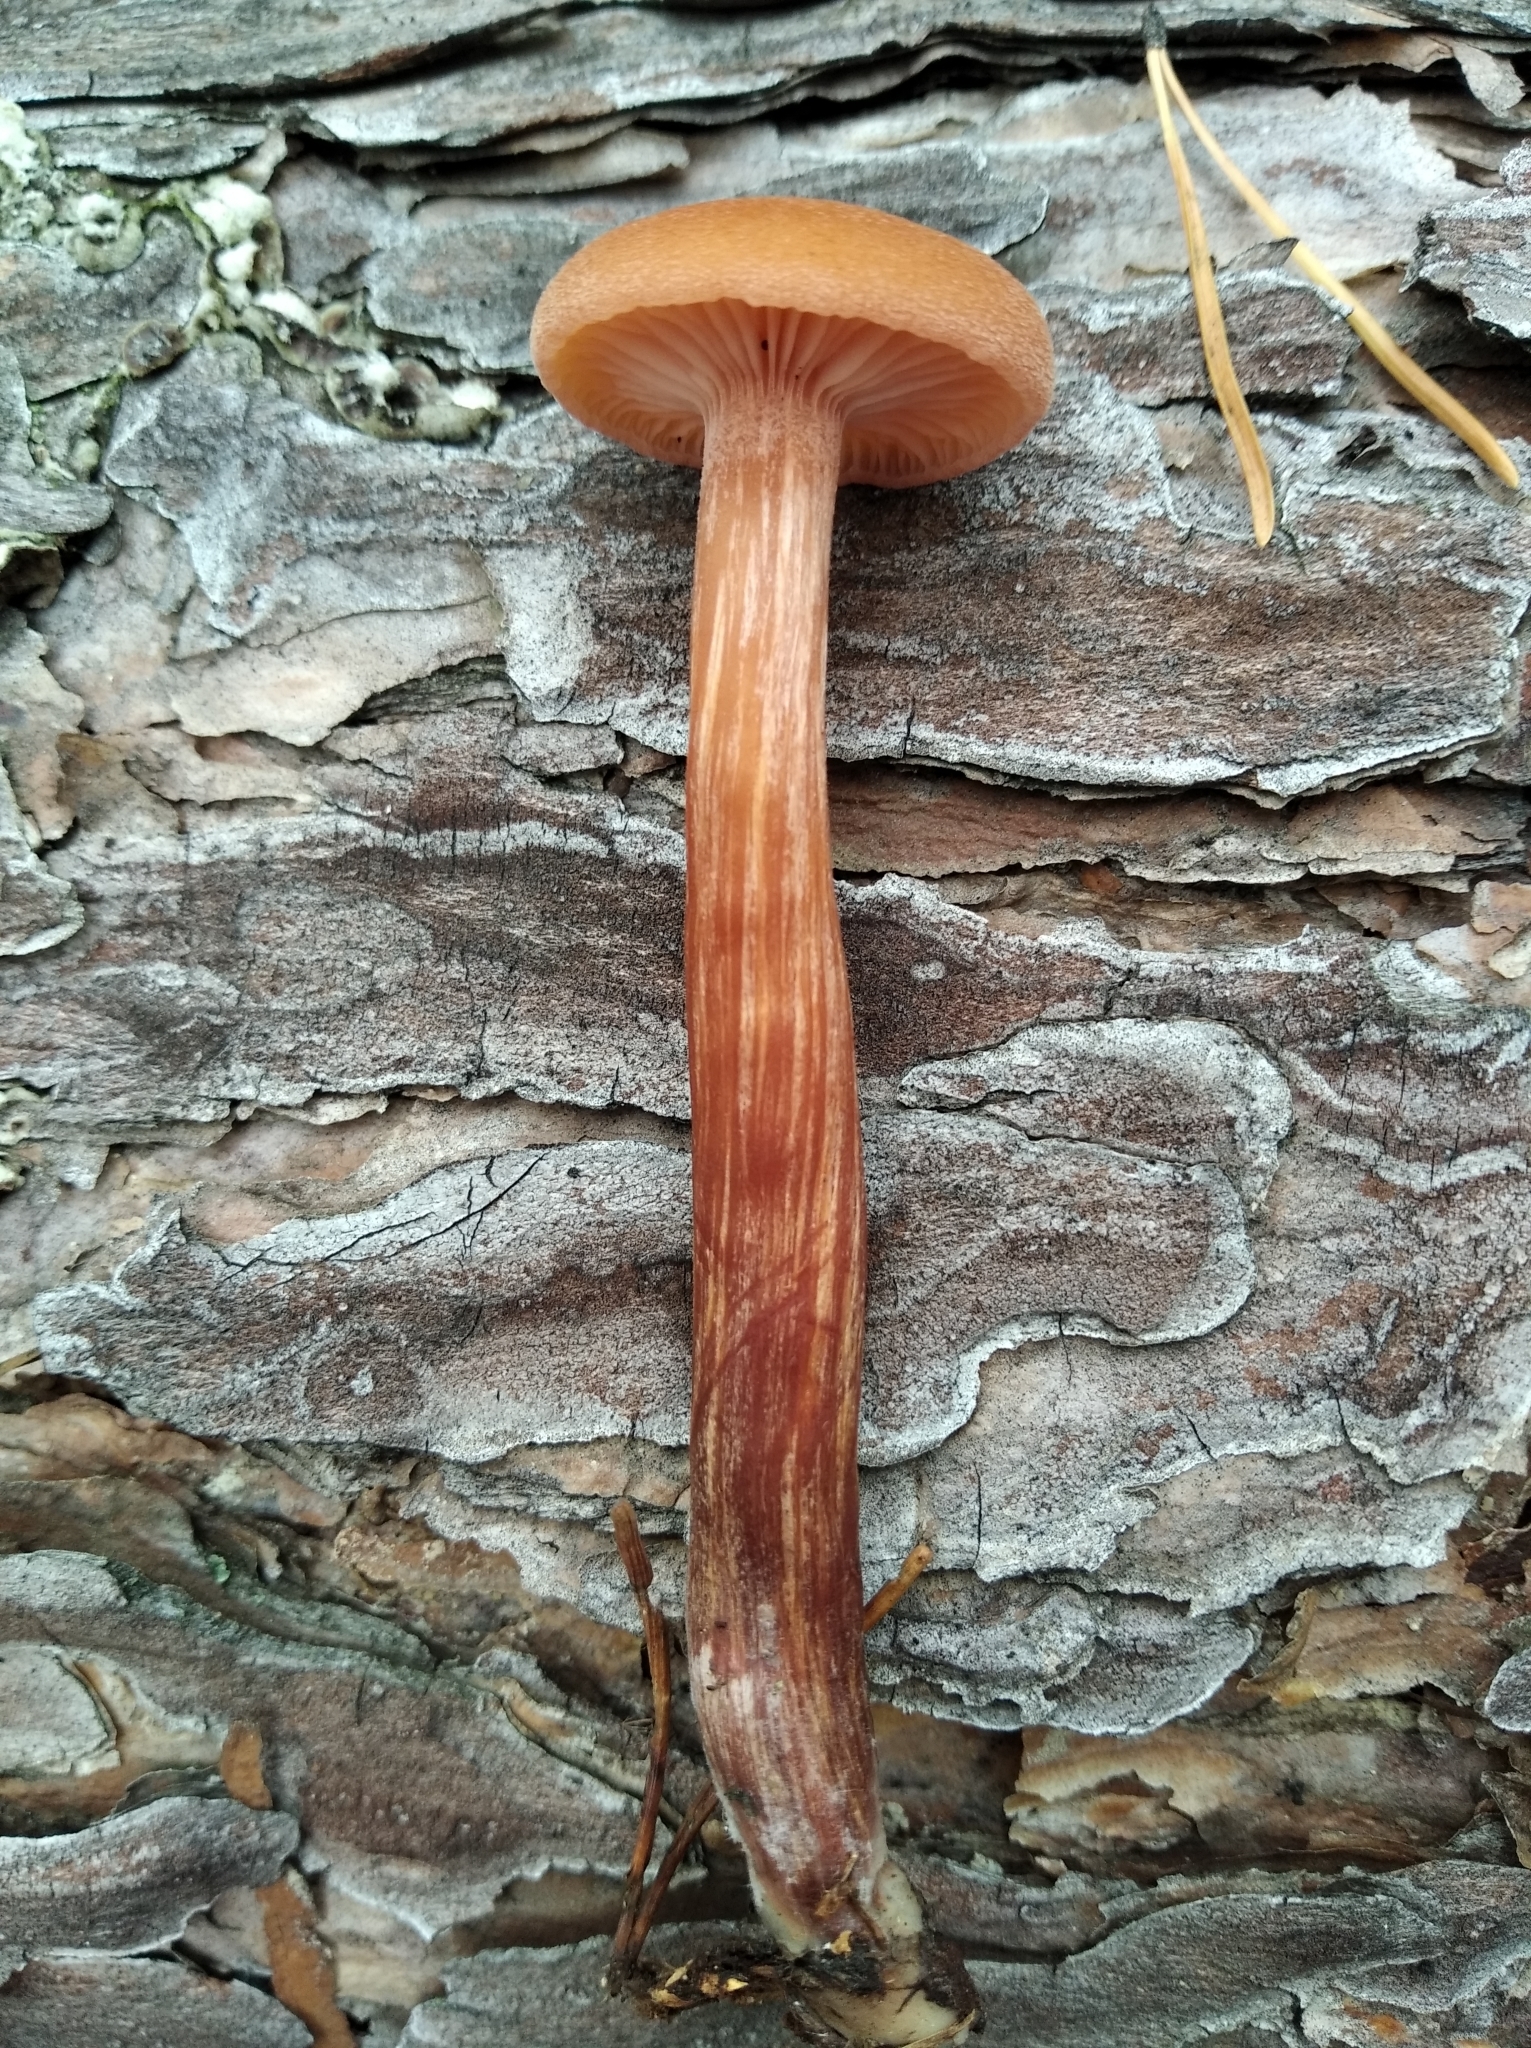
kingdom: Fungi
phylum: Basidiomycota
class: Agaricomycetes
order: Agaricales
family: Hydnangiaceae
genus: Laccaria
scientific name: Laccaria laccata
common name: Deceiver
